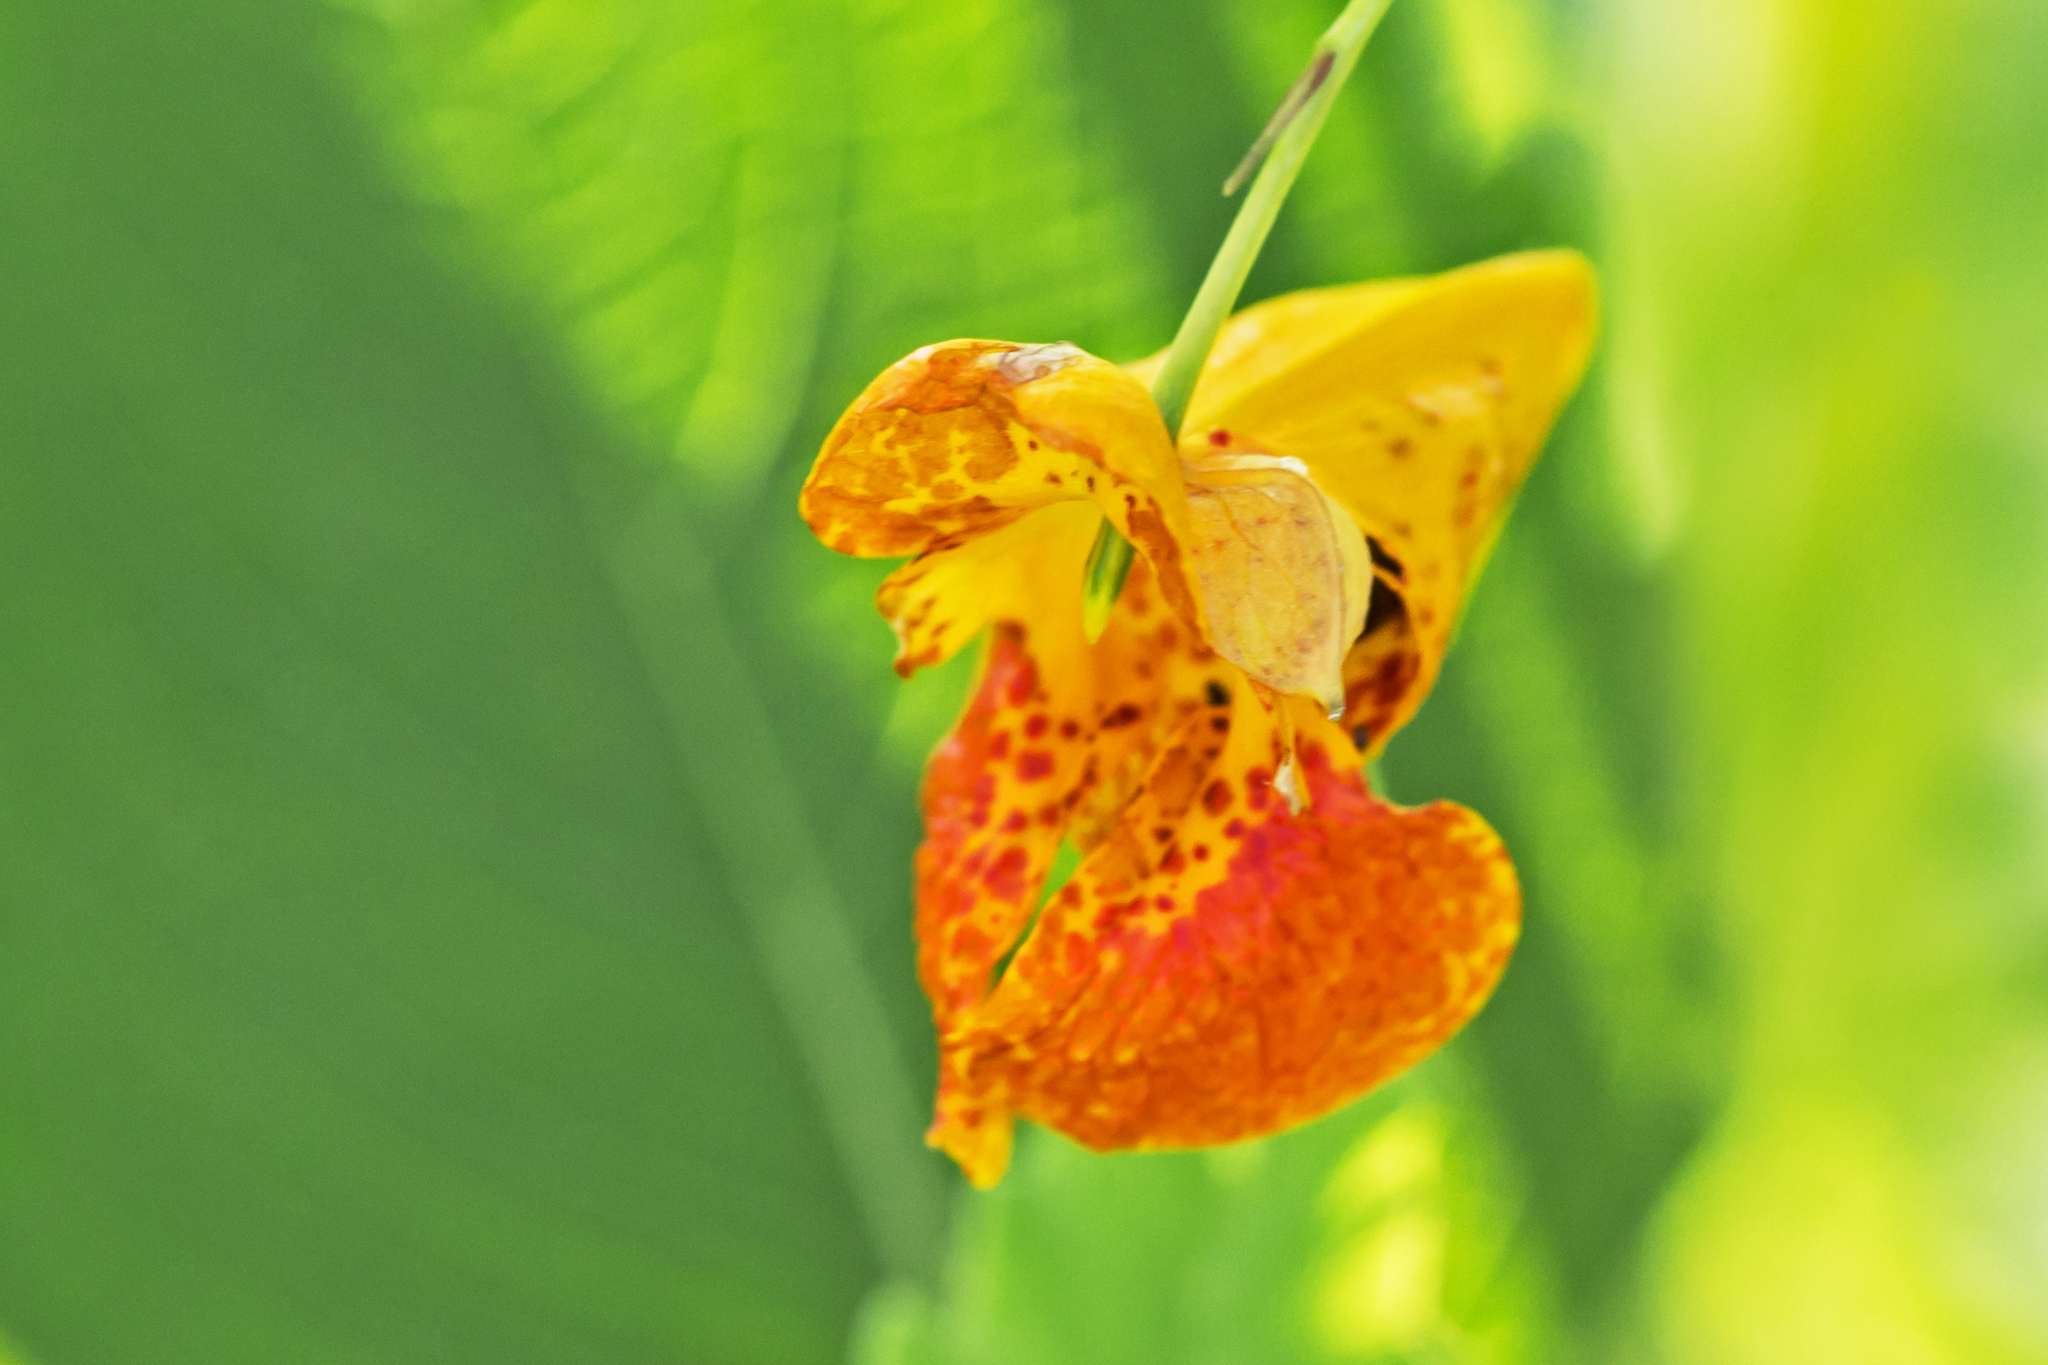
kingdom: Plantae
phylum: Tracheophyta
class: Magnoliopsida
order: Ericales
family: Balsaminaceae
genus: Impatiens
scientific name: Impatiens capensis
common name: Orange balsam
